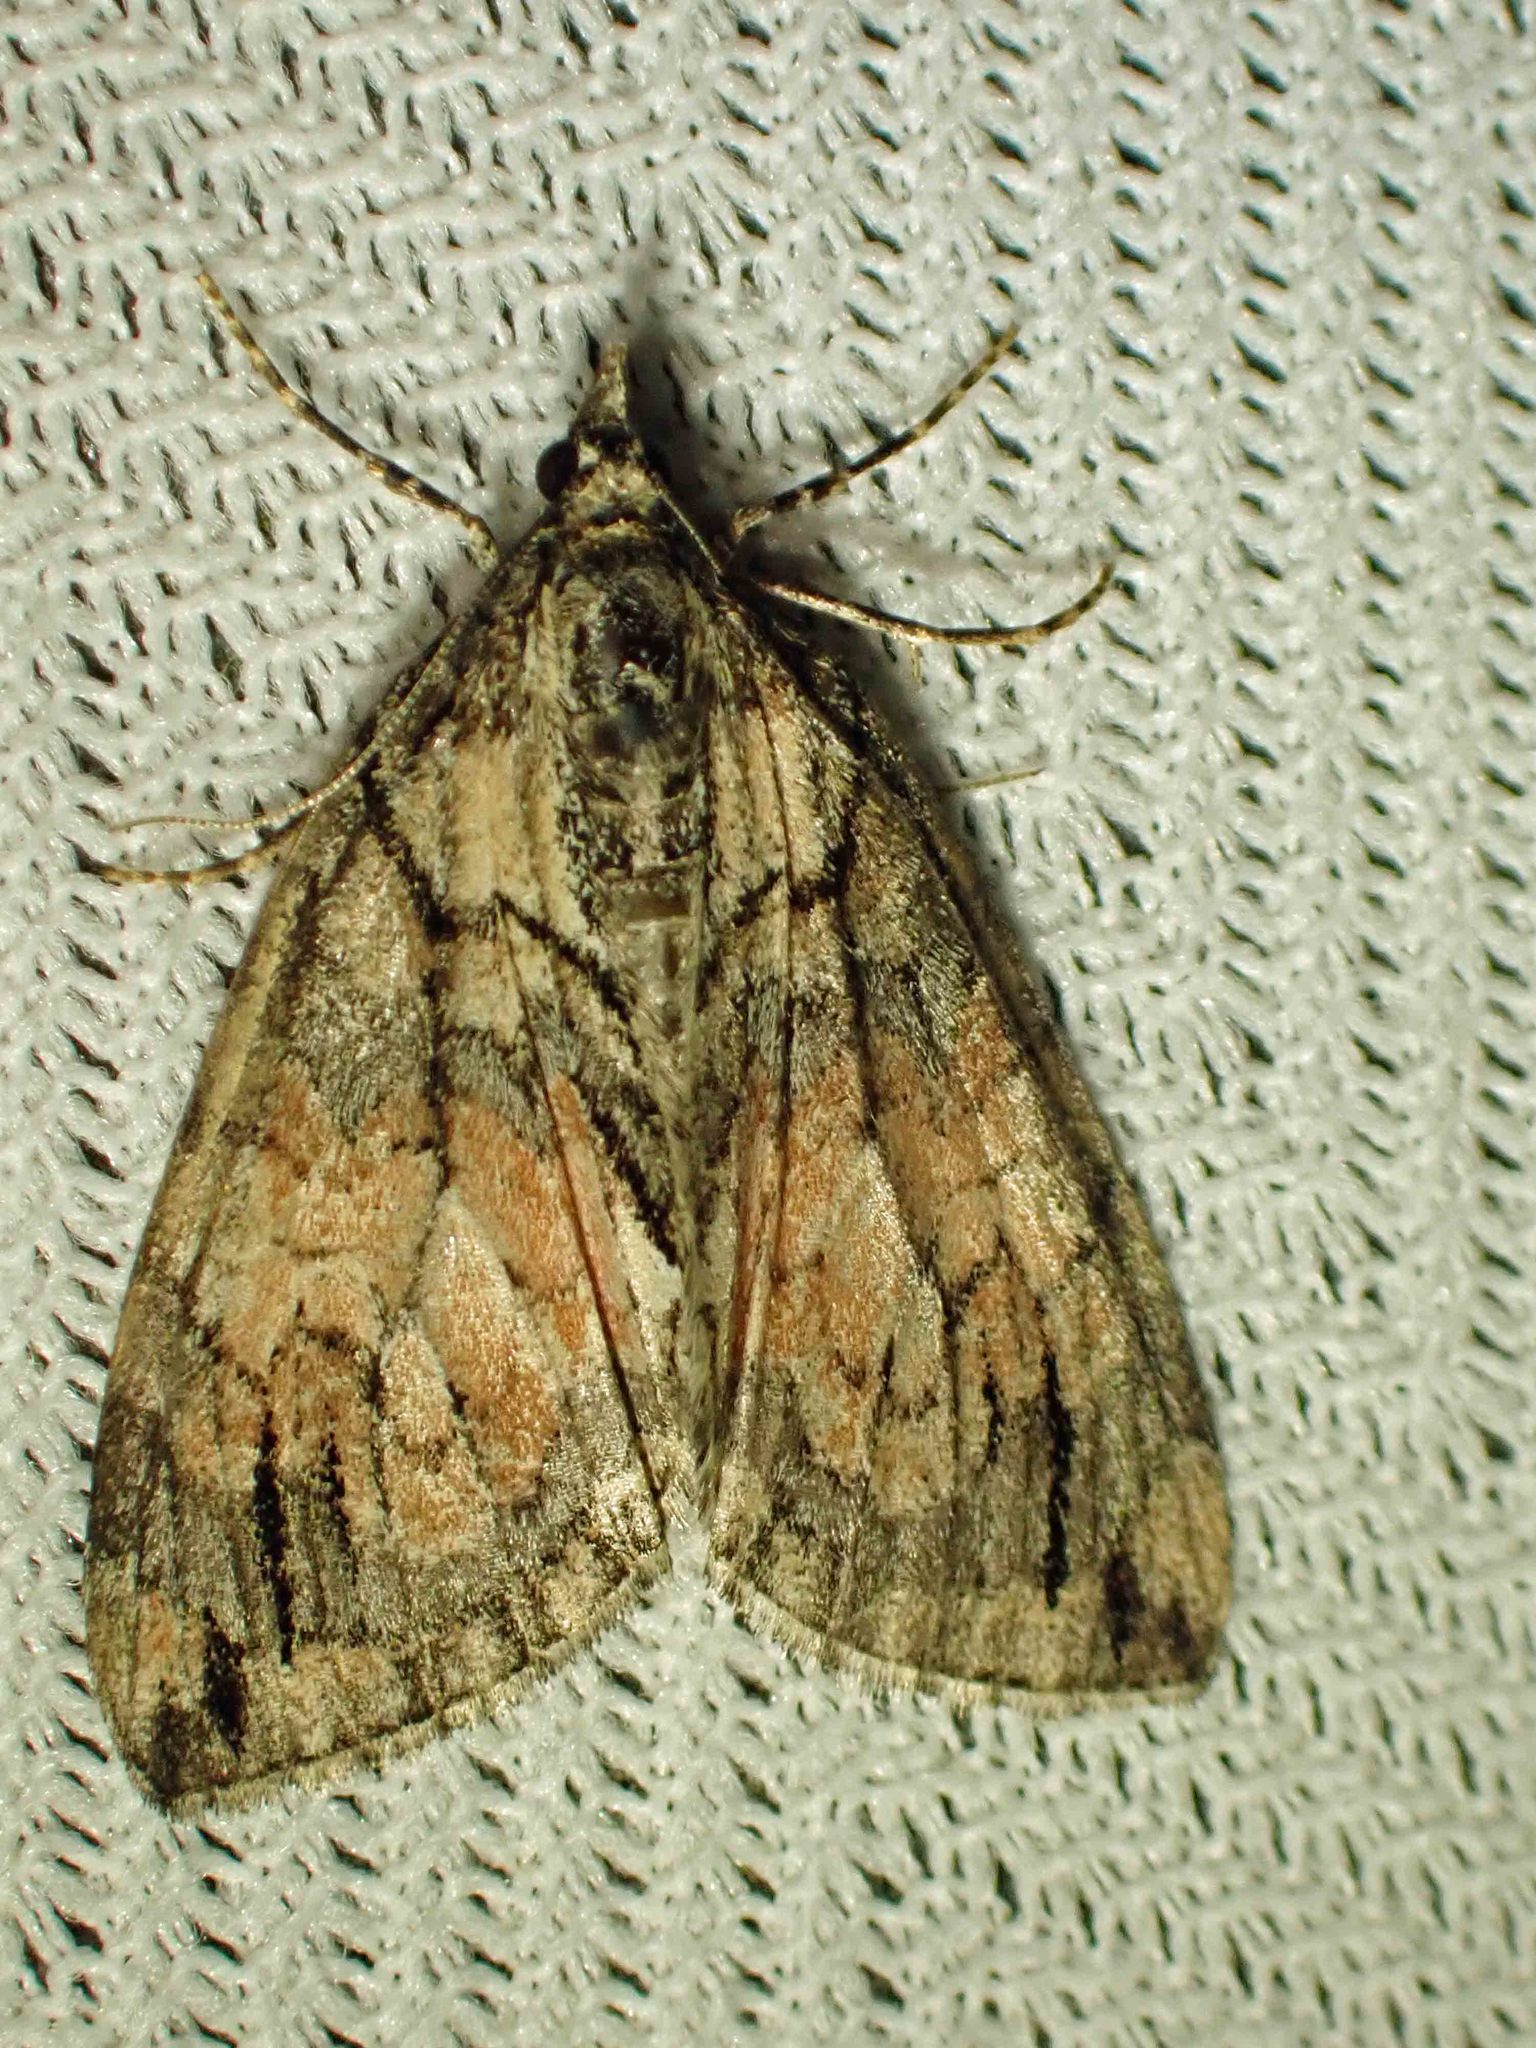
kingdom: Animalia
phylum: Arthropoda
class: Insecta
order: Lepidoptera
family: Geometridae
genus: Hydriomena
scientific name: Hydriomena perfracta
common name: Shattered hydriomena moth
